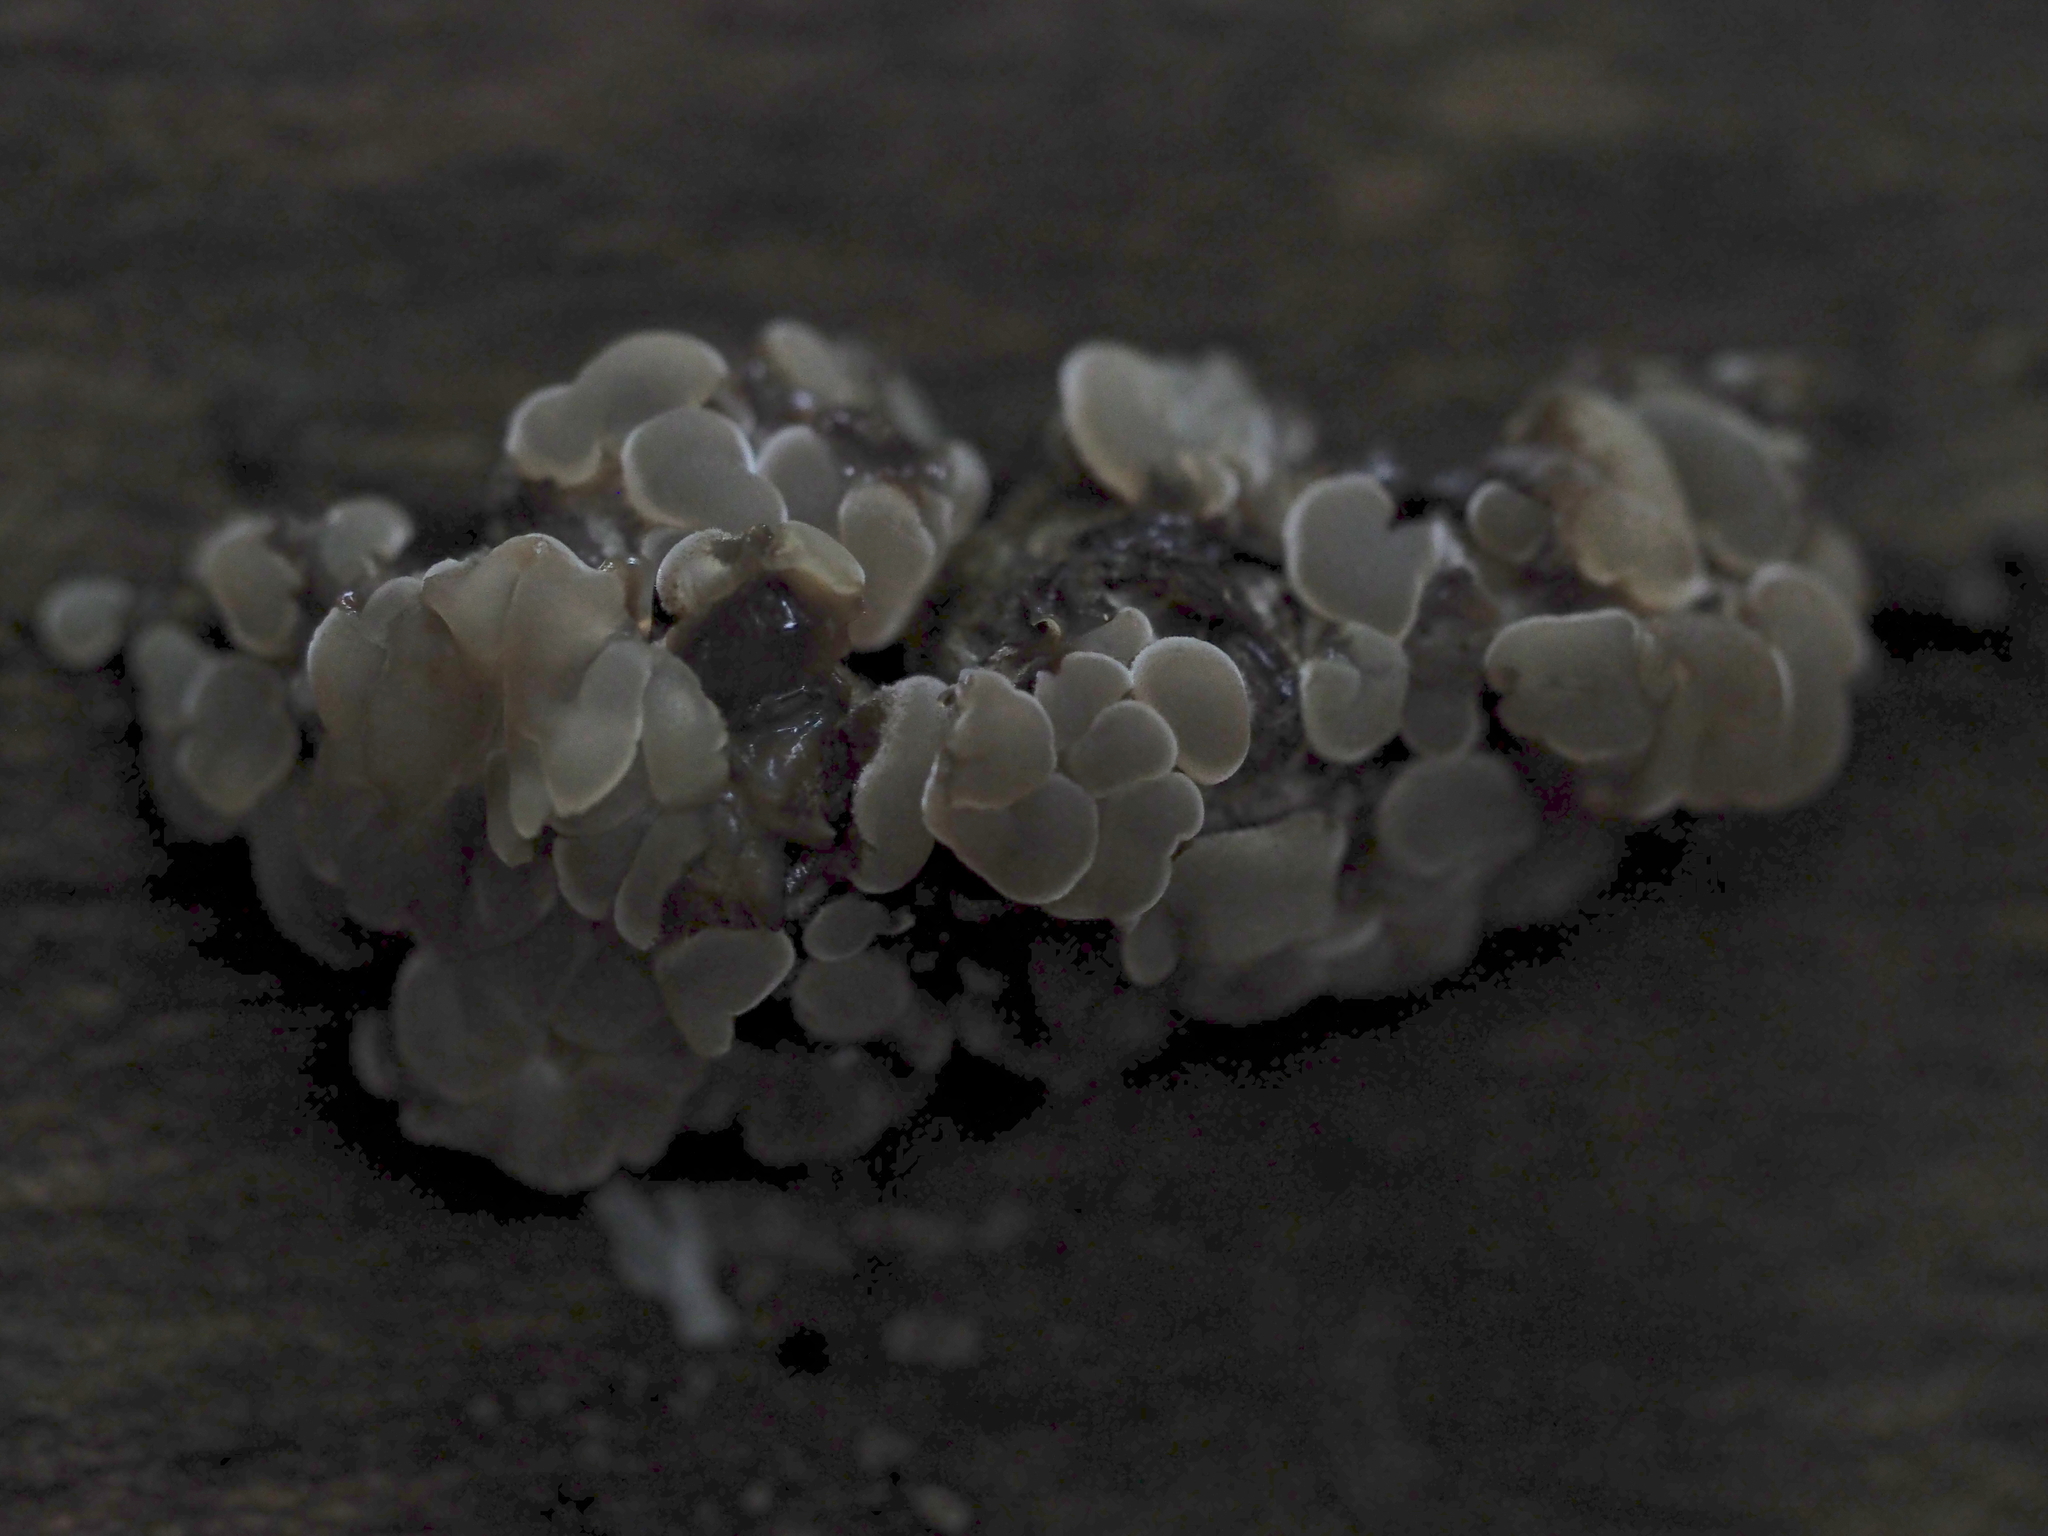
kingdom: Fungi
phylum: Basidiomycota
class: Agaricomycetes
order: Auriculariales
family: Auriculariaceae
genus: Auricularia
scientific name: Auricularia mesenterica
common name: Tripe fungus
